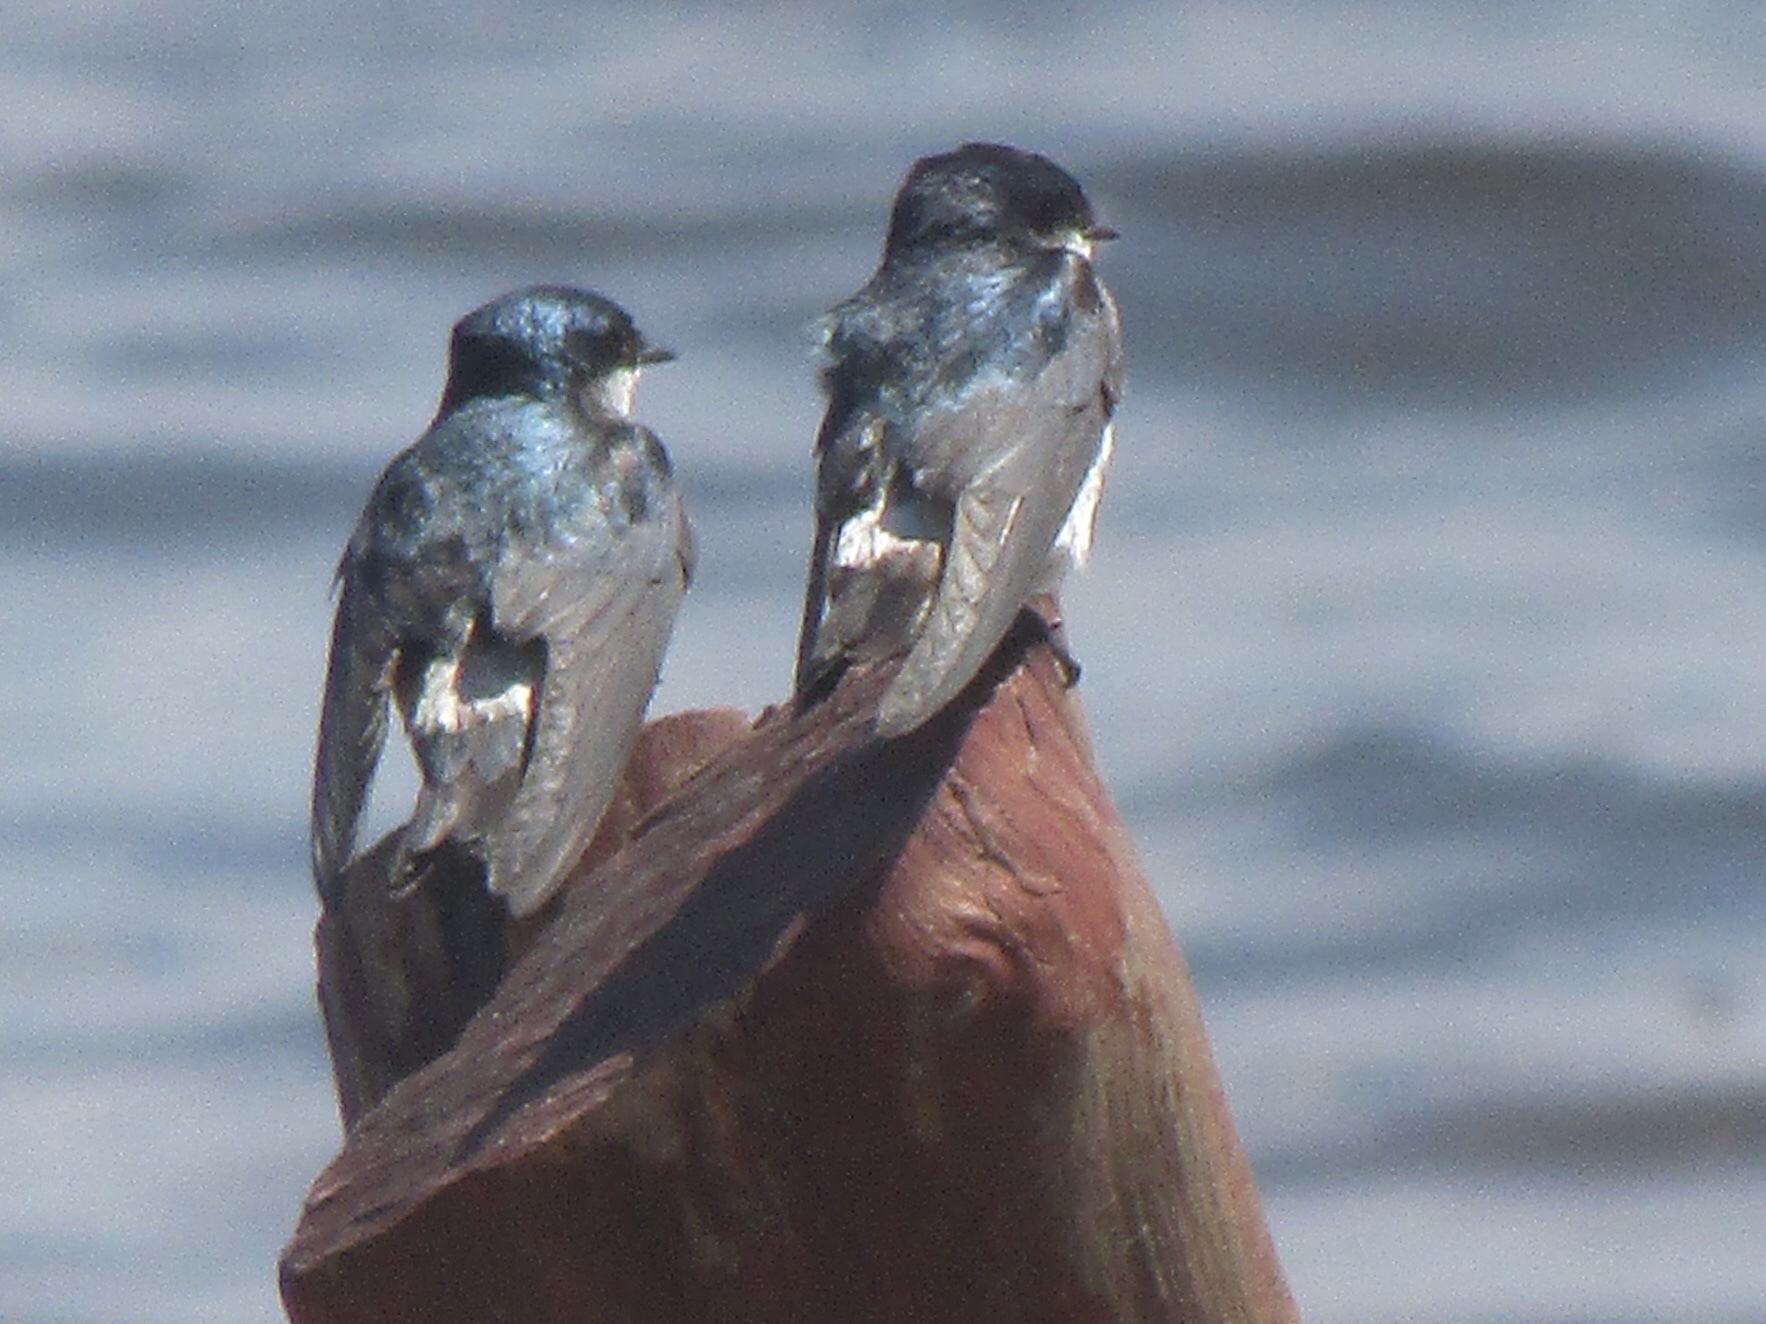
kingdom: Animalia
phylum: Chordata
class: Aves
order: Passeriformes
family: Hirundinidae
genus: Tachycineta
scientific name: Tachycineta albilinea
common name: Mangrove swallow
